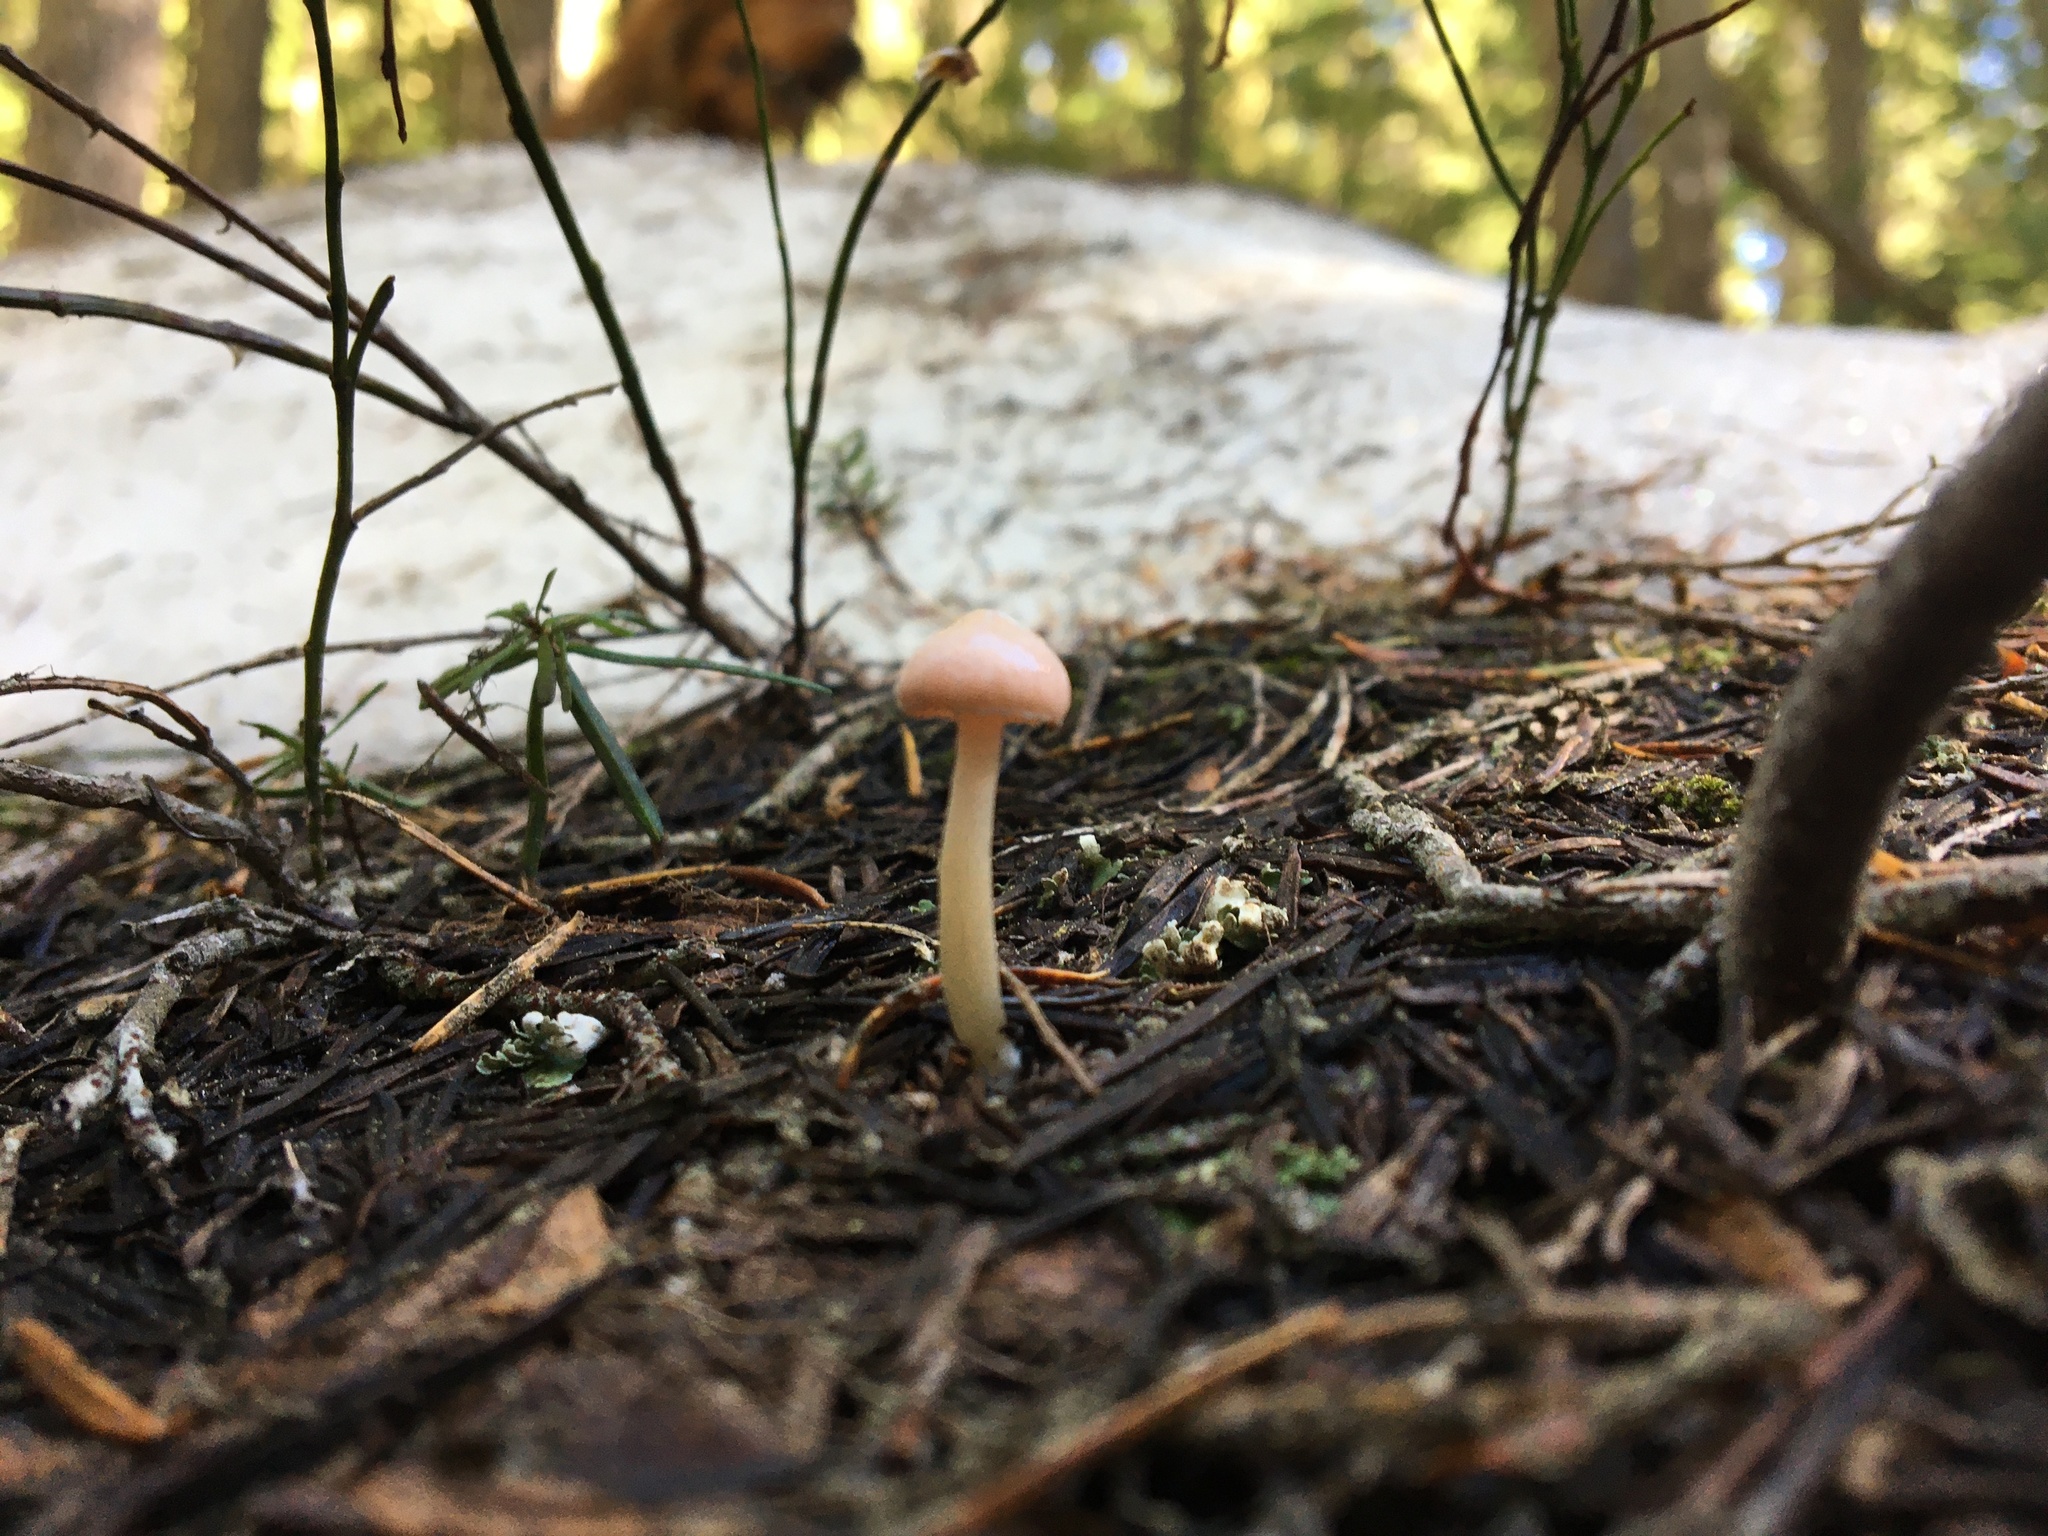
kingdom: Fungi
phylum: Basidiomycota
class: Agaricomycetes
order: Agaricales
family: Hygrophoraceae
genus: Hygrophorus
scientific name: Hygrophorus goetzei
